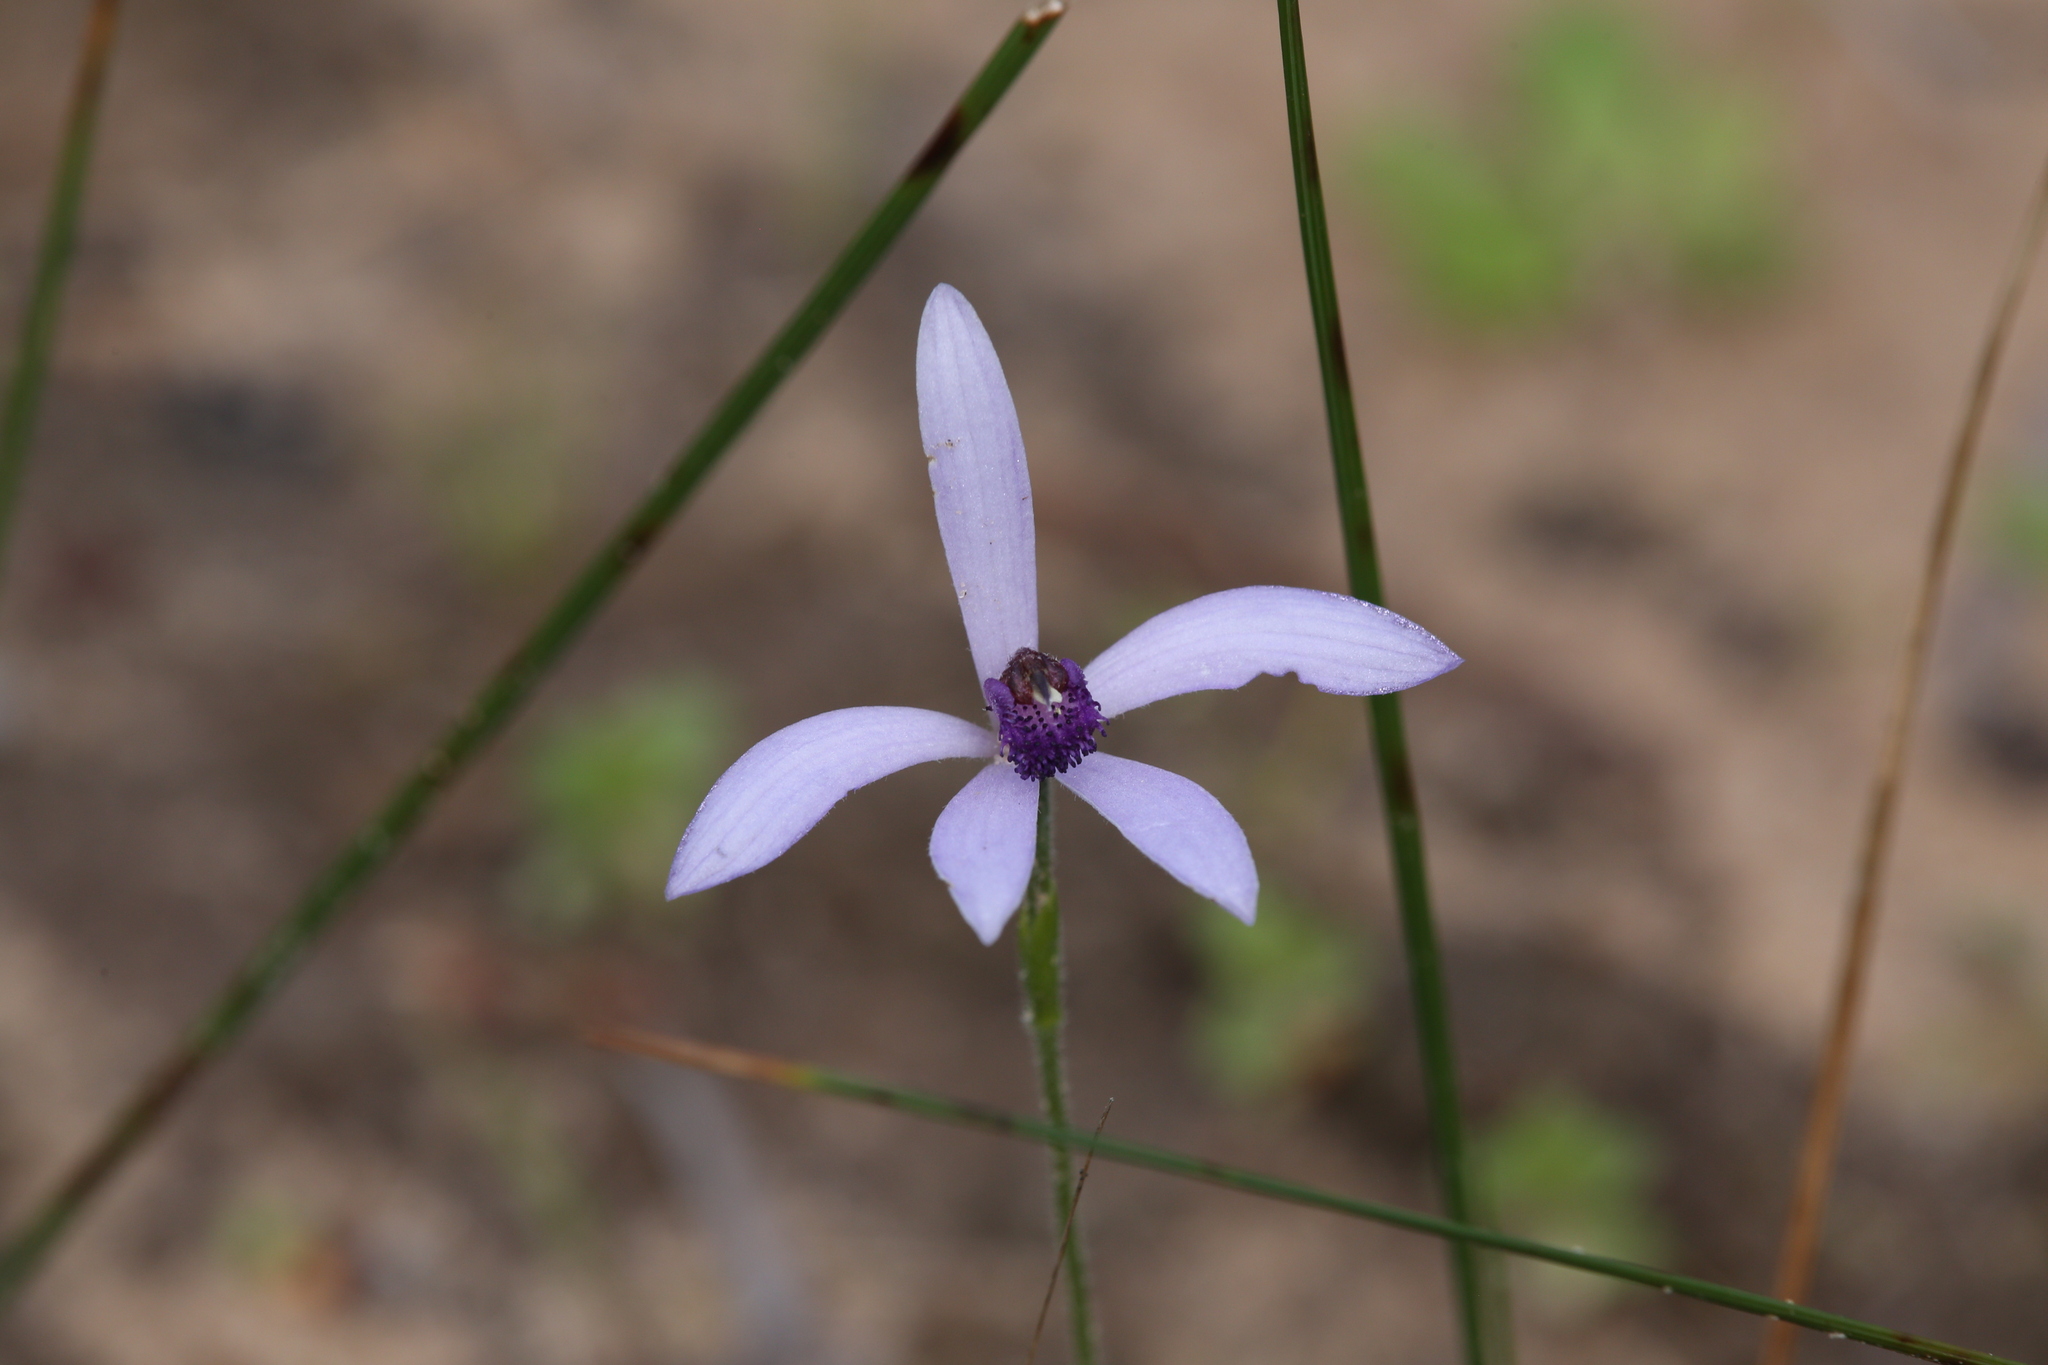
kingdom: Plantae
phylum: Tracheophyta
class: Liliopsida
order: Asparagales
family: Orchidaceae
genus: Pheladenia
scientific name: Pheladenia deformis
